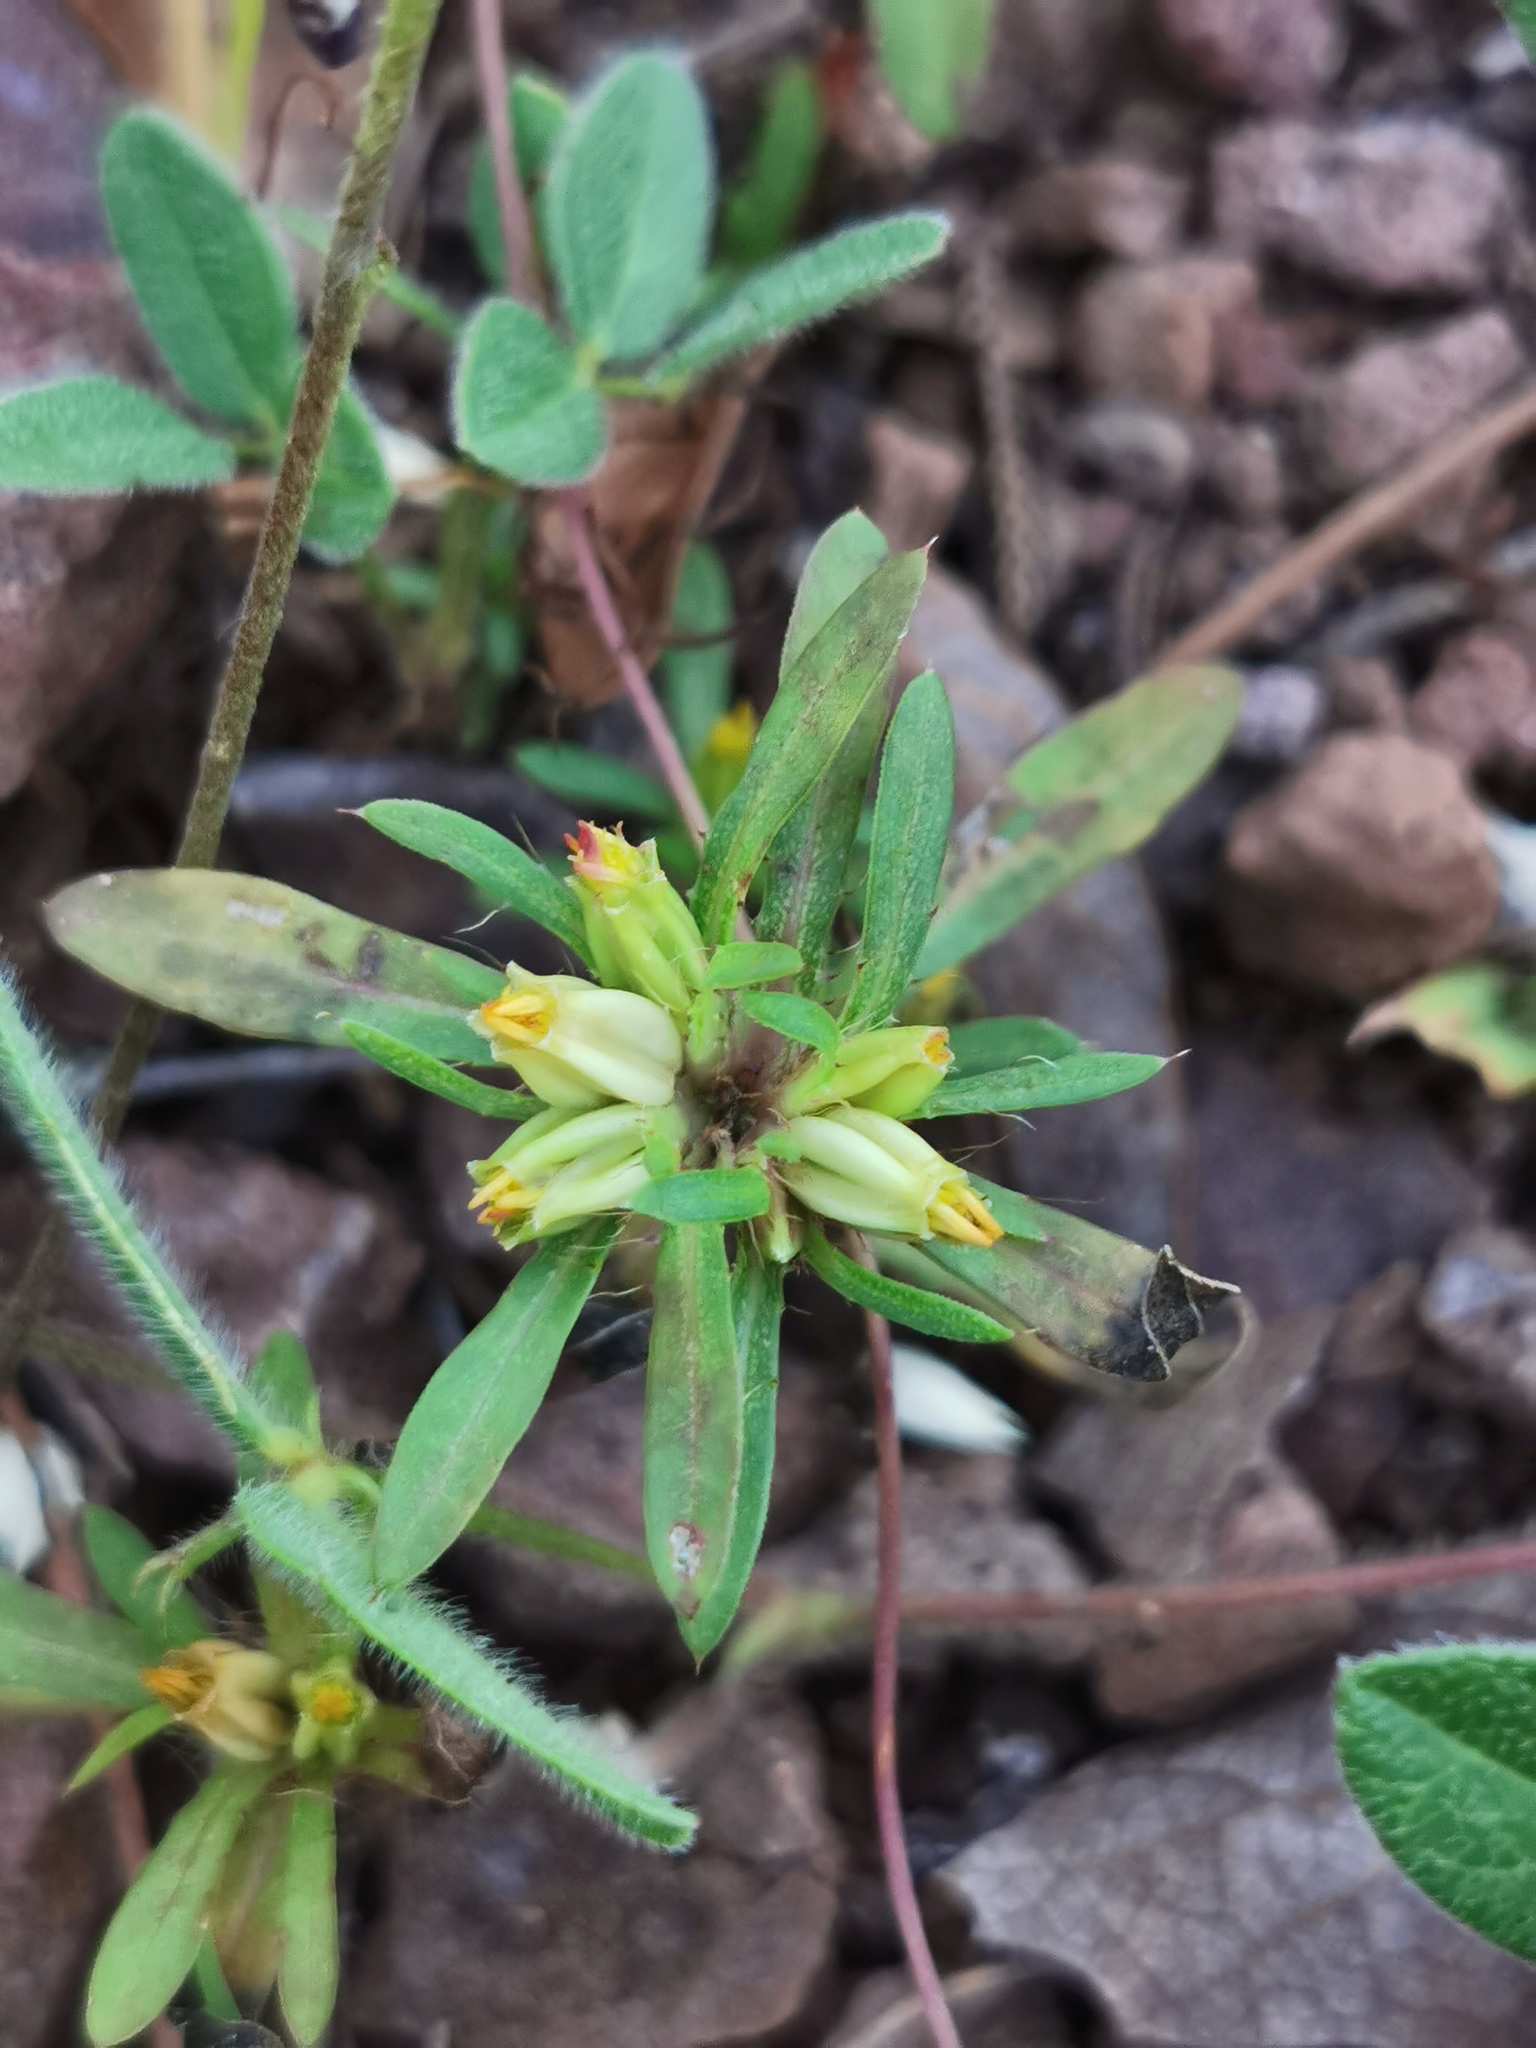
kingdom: Plantae
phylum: Tracheophyta
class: Magnoliopsida
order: Asterales
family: Asteraceae
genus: Pectis
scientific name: Pectis prostrata
